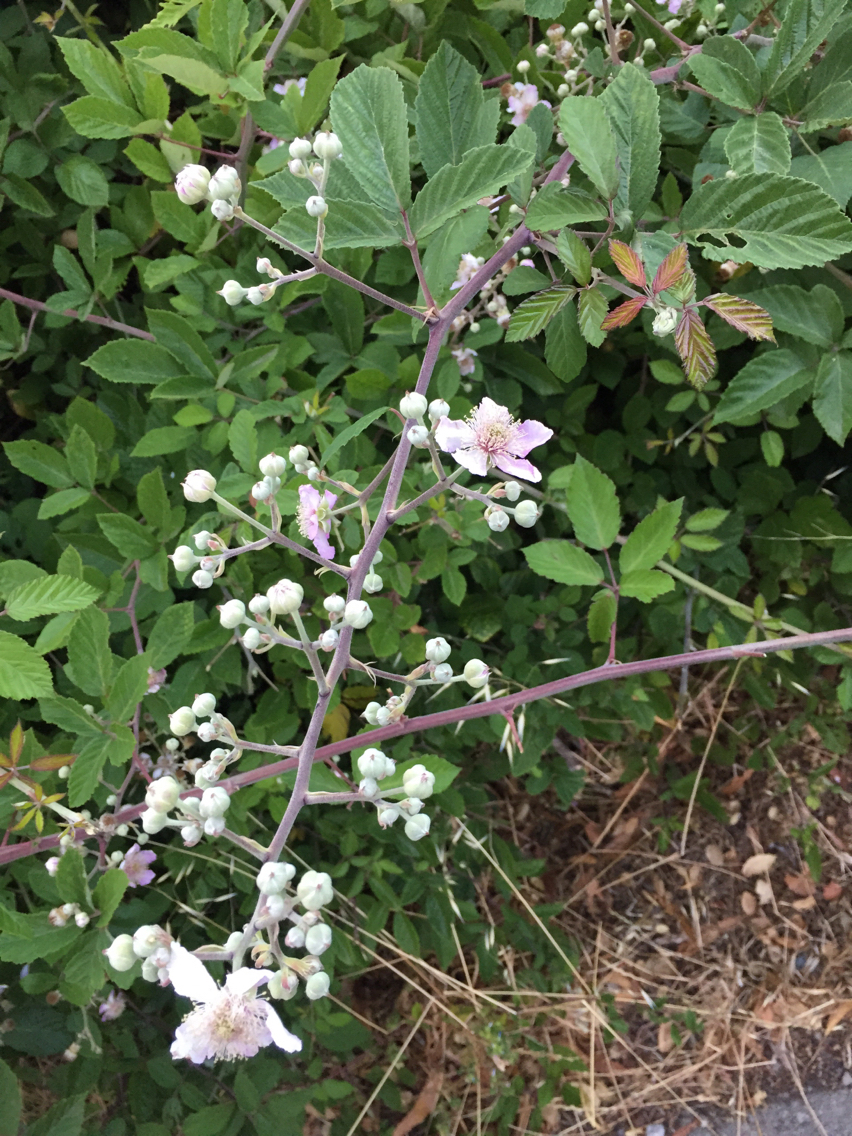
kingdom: Plantae
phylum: Tracheophyta
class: Magnoliopsida
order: Rosales
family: Rosaceae
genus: Rubus
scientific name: Rubus ulmifolius
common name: Elmleaf blackberry
